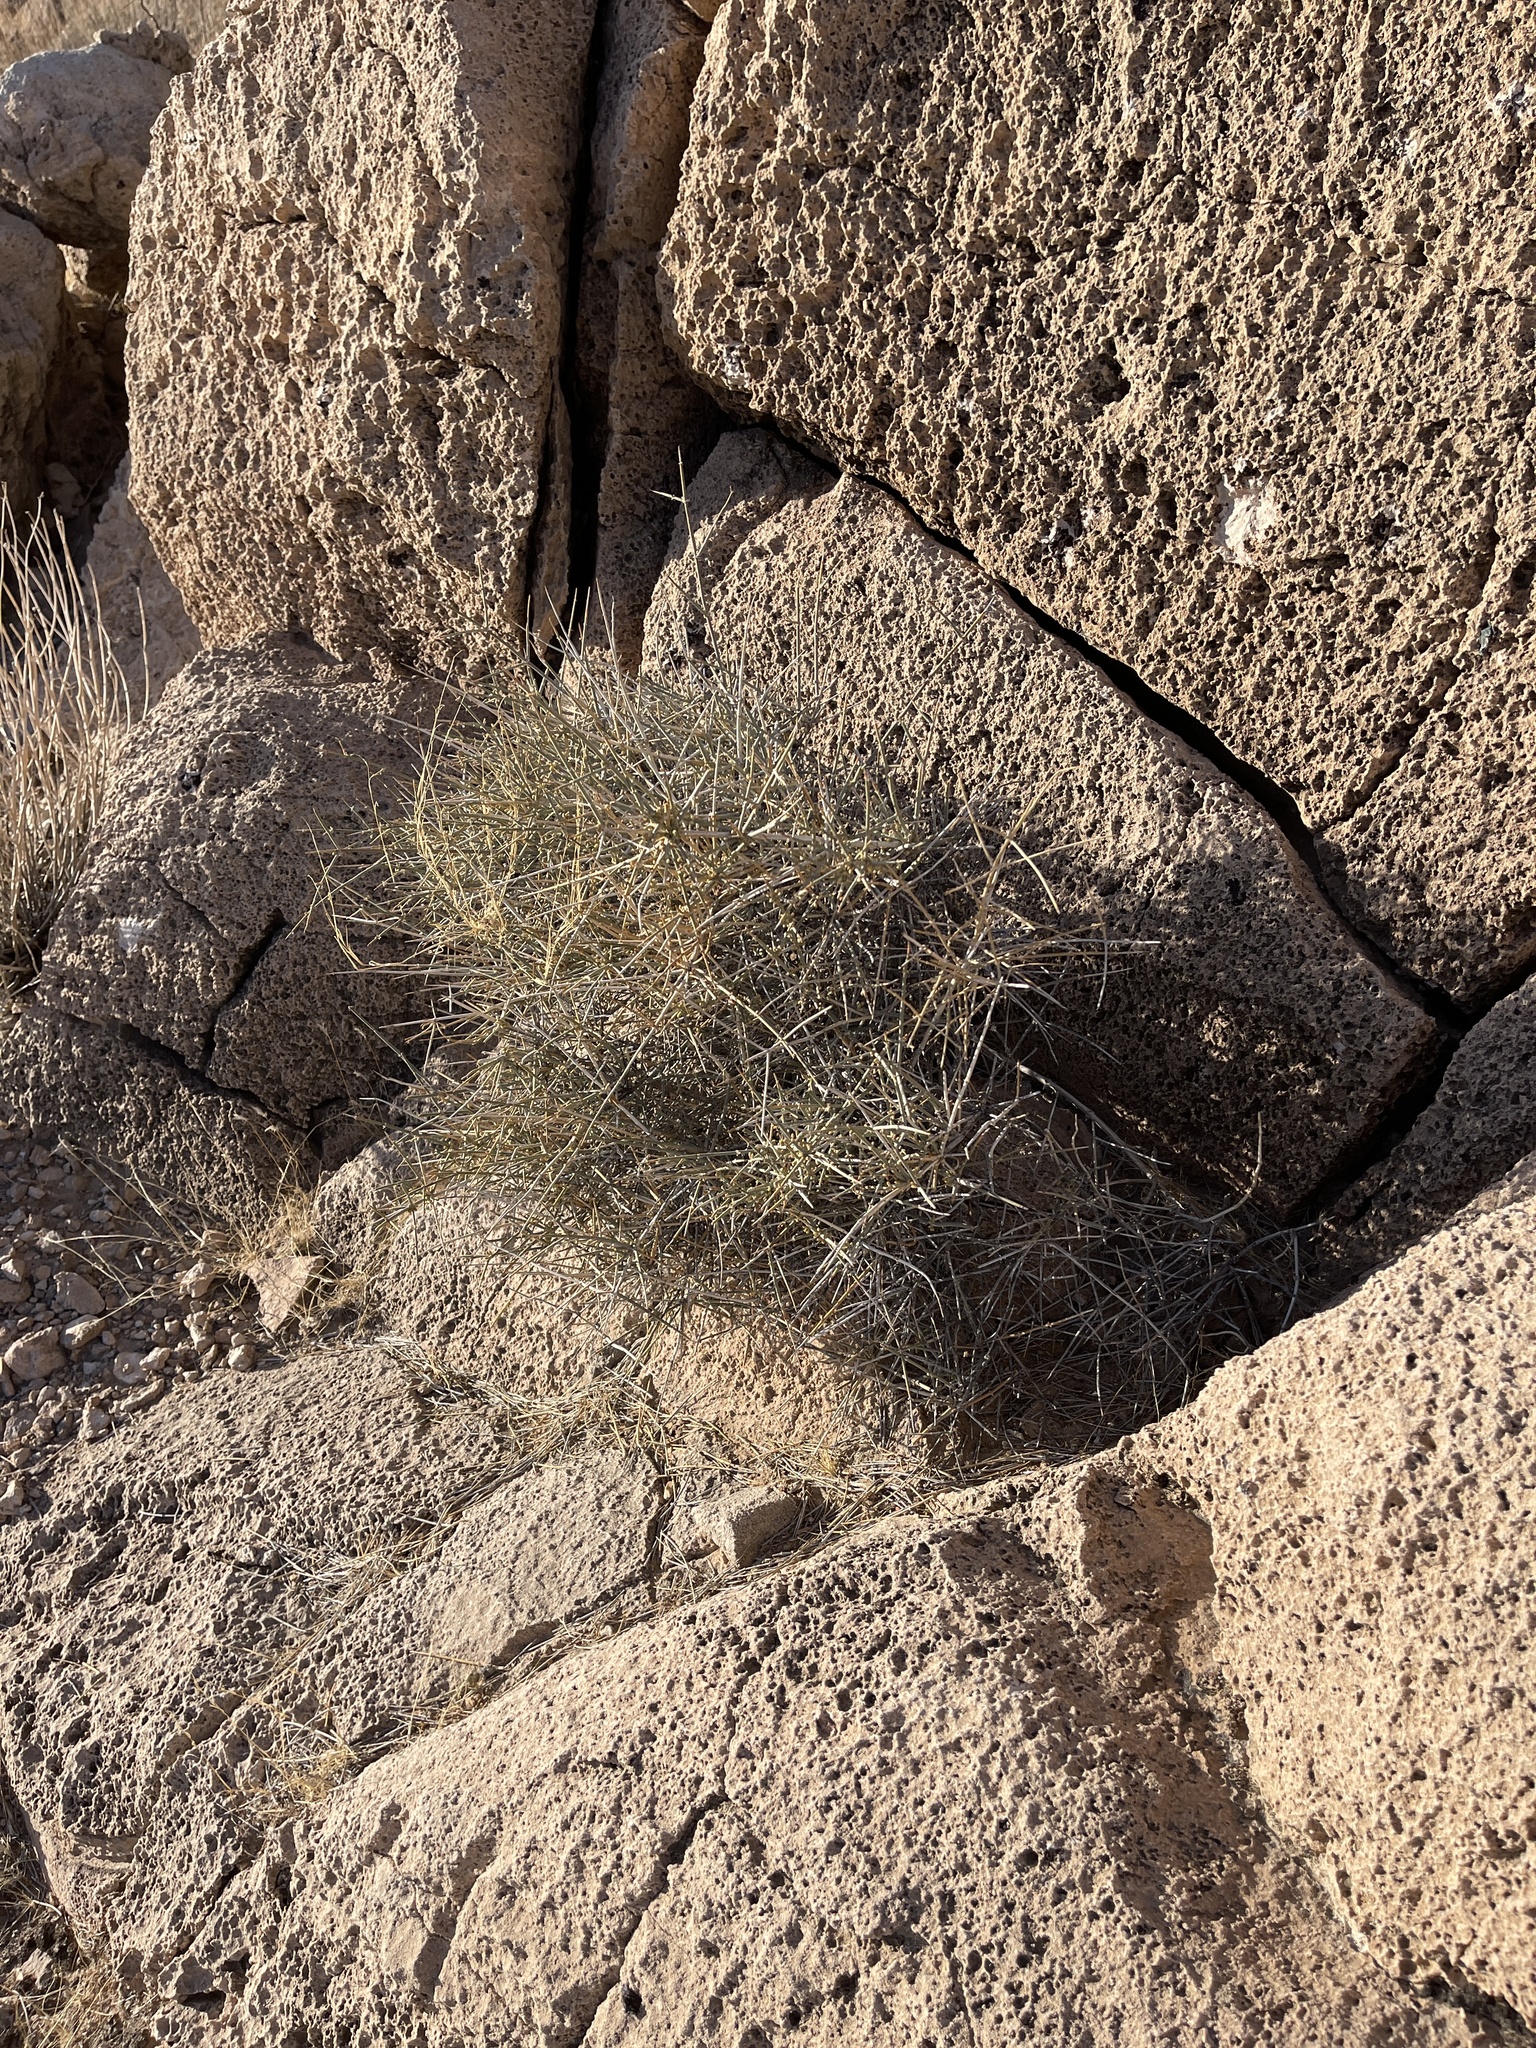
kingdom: Plantae
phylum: Tracheophyta
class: Gnetopsida
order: Ephedrales
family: Ephedraceae
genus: Ephedra
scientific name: Ephedra nevadensis
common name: Gray ephedra
